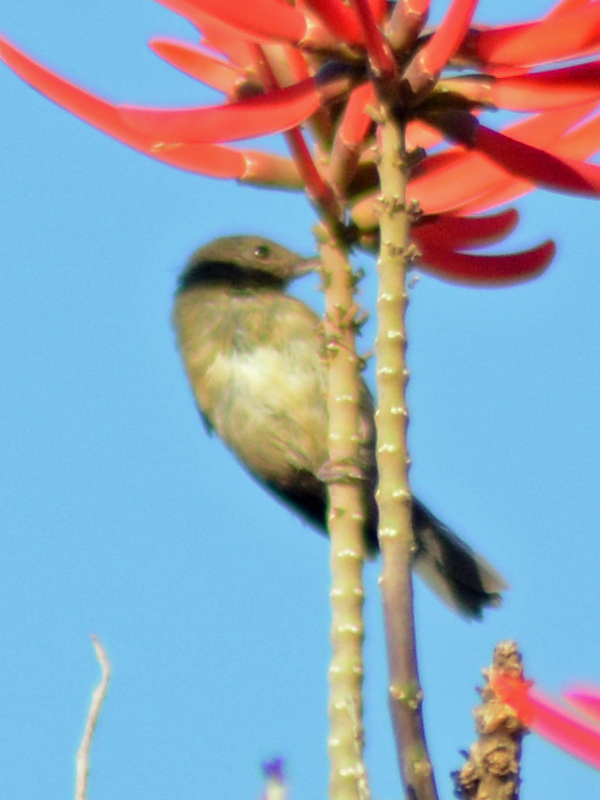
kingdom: Animalia
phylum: Chordata
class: Aves
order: Passeriformes
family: Thraupidae
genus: Diglossa
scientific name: Diglossa baritula
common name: Cinnamon-bellied flowerpiercer
